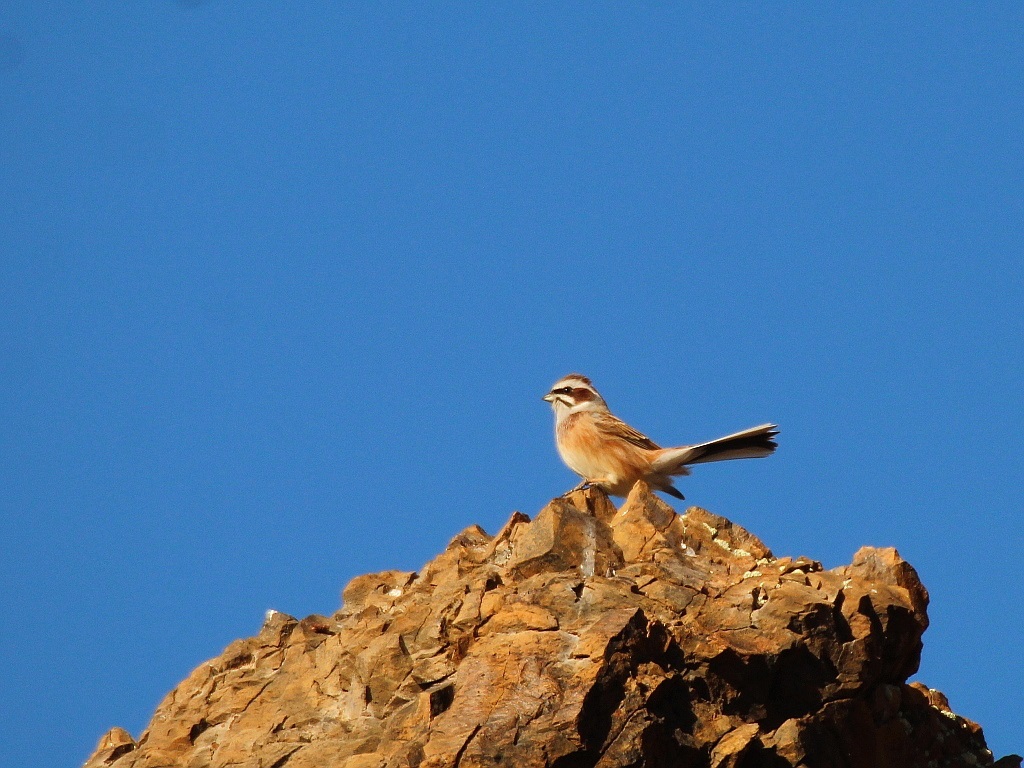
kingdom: Animalia
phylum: Chordata
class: Aves
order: Passeriformes
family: Emberizidae
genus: Emberiza
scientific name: Emberiza cioides
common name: Meadow bunting
